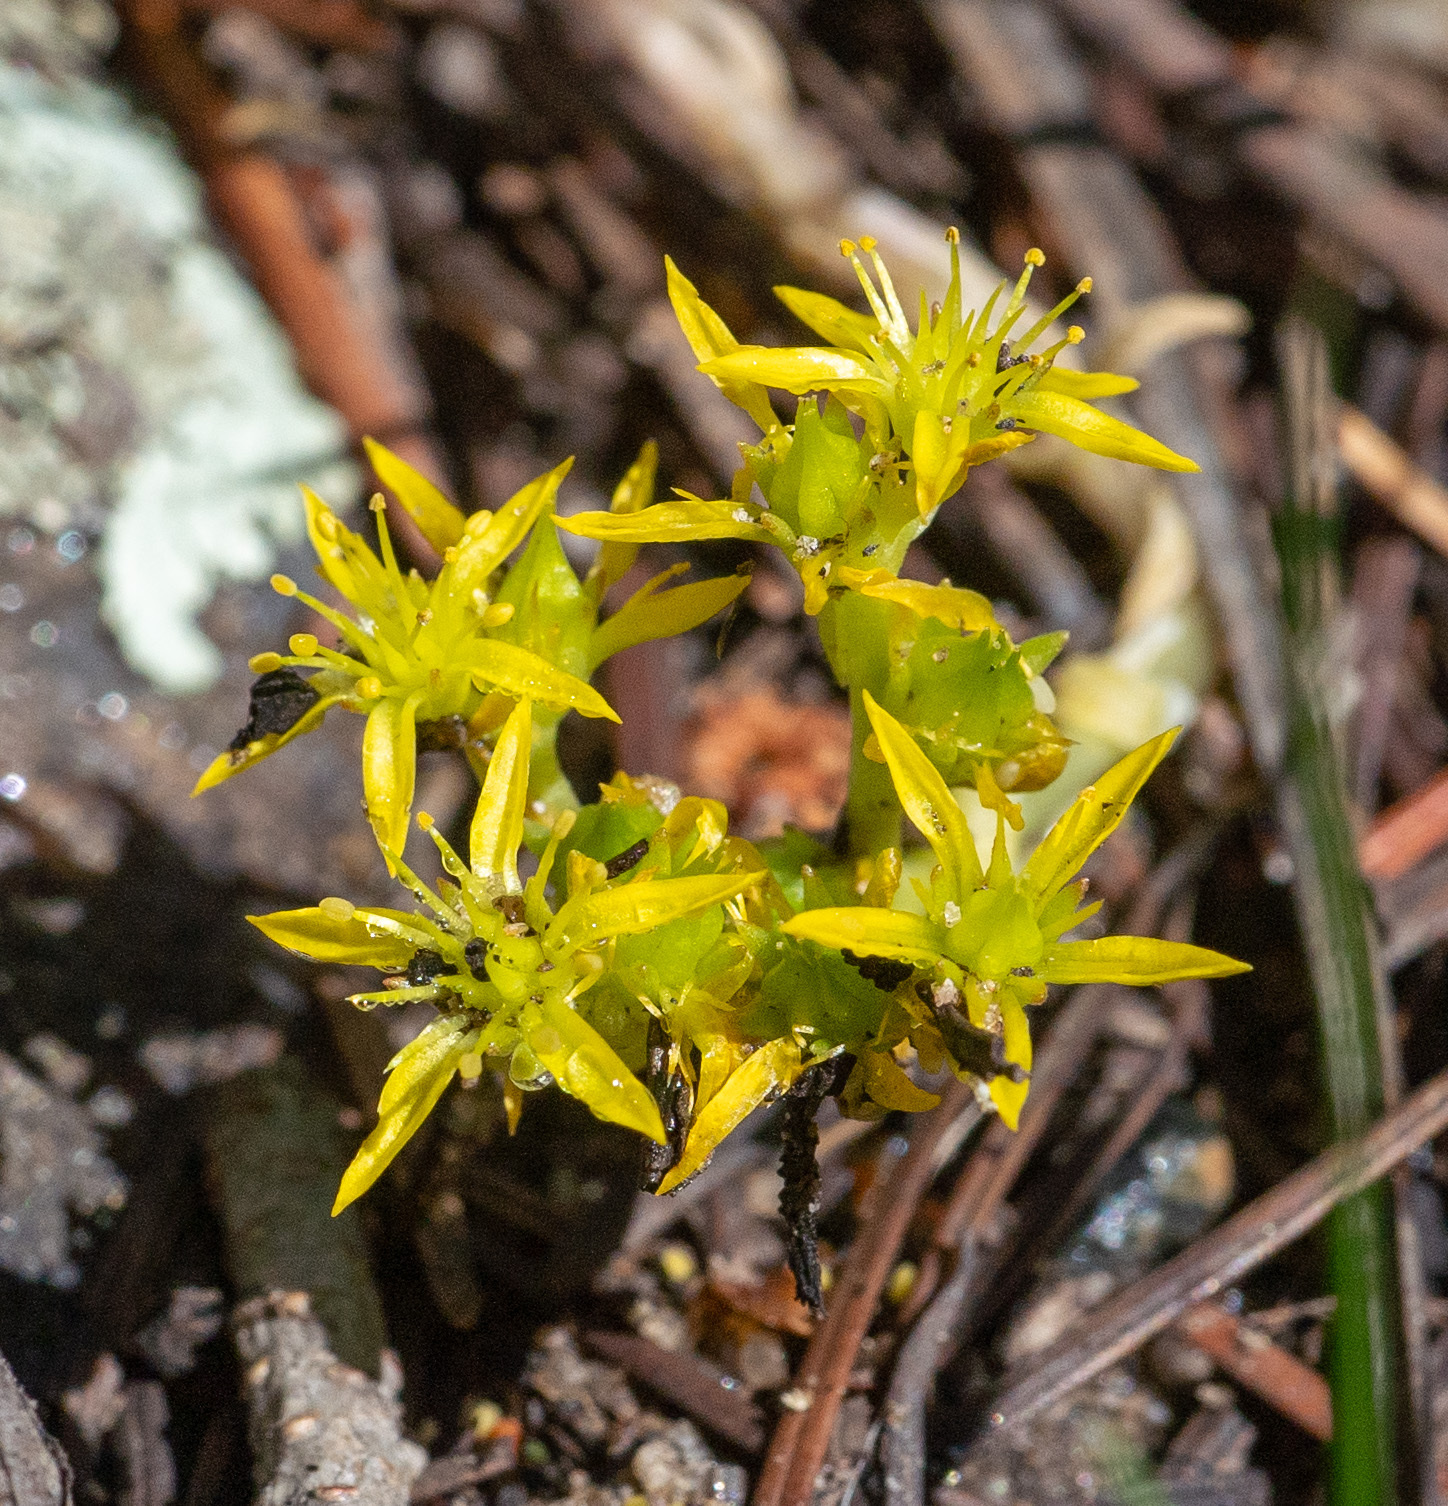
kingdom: Plantae
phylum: Tracheophyta
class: Magnoliopsida
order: Saxifragales
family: Crassulaceae
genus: Sedum
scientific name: Sedum lanceolatum
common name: Common stonecrop
